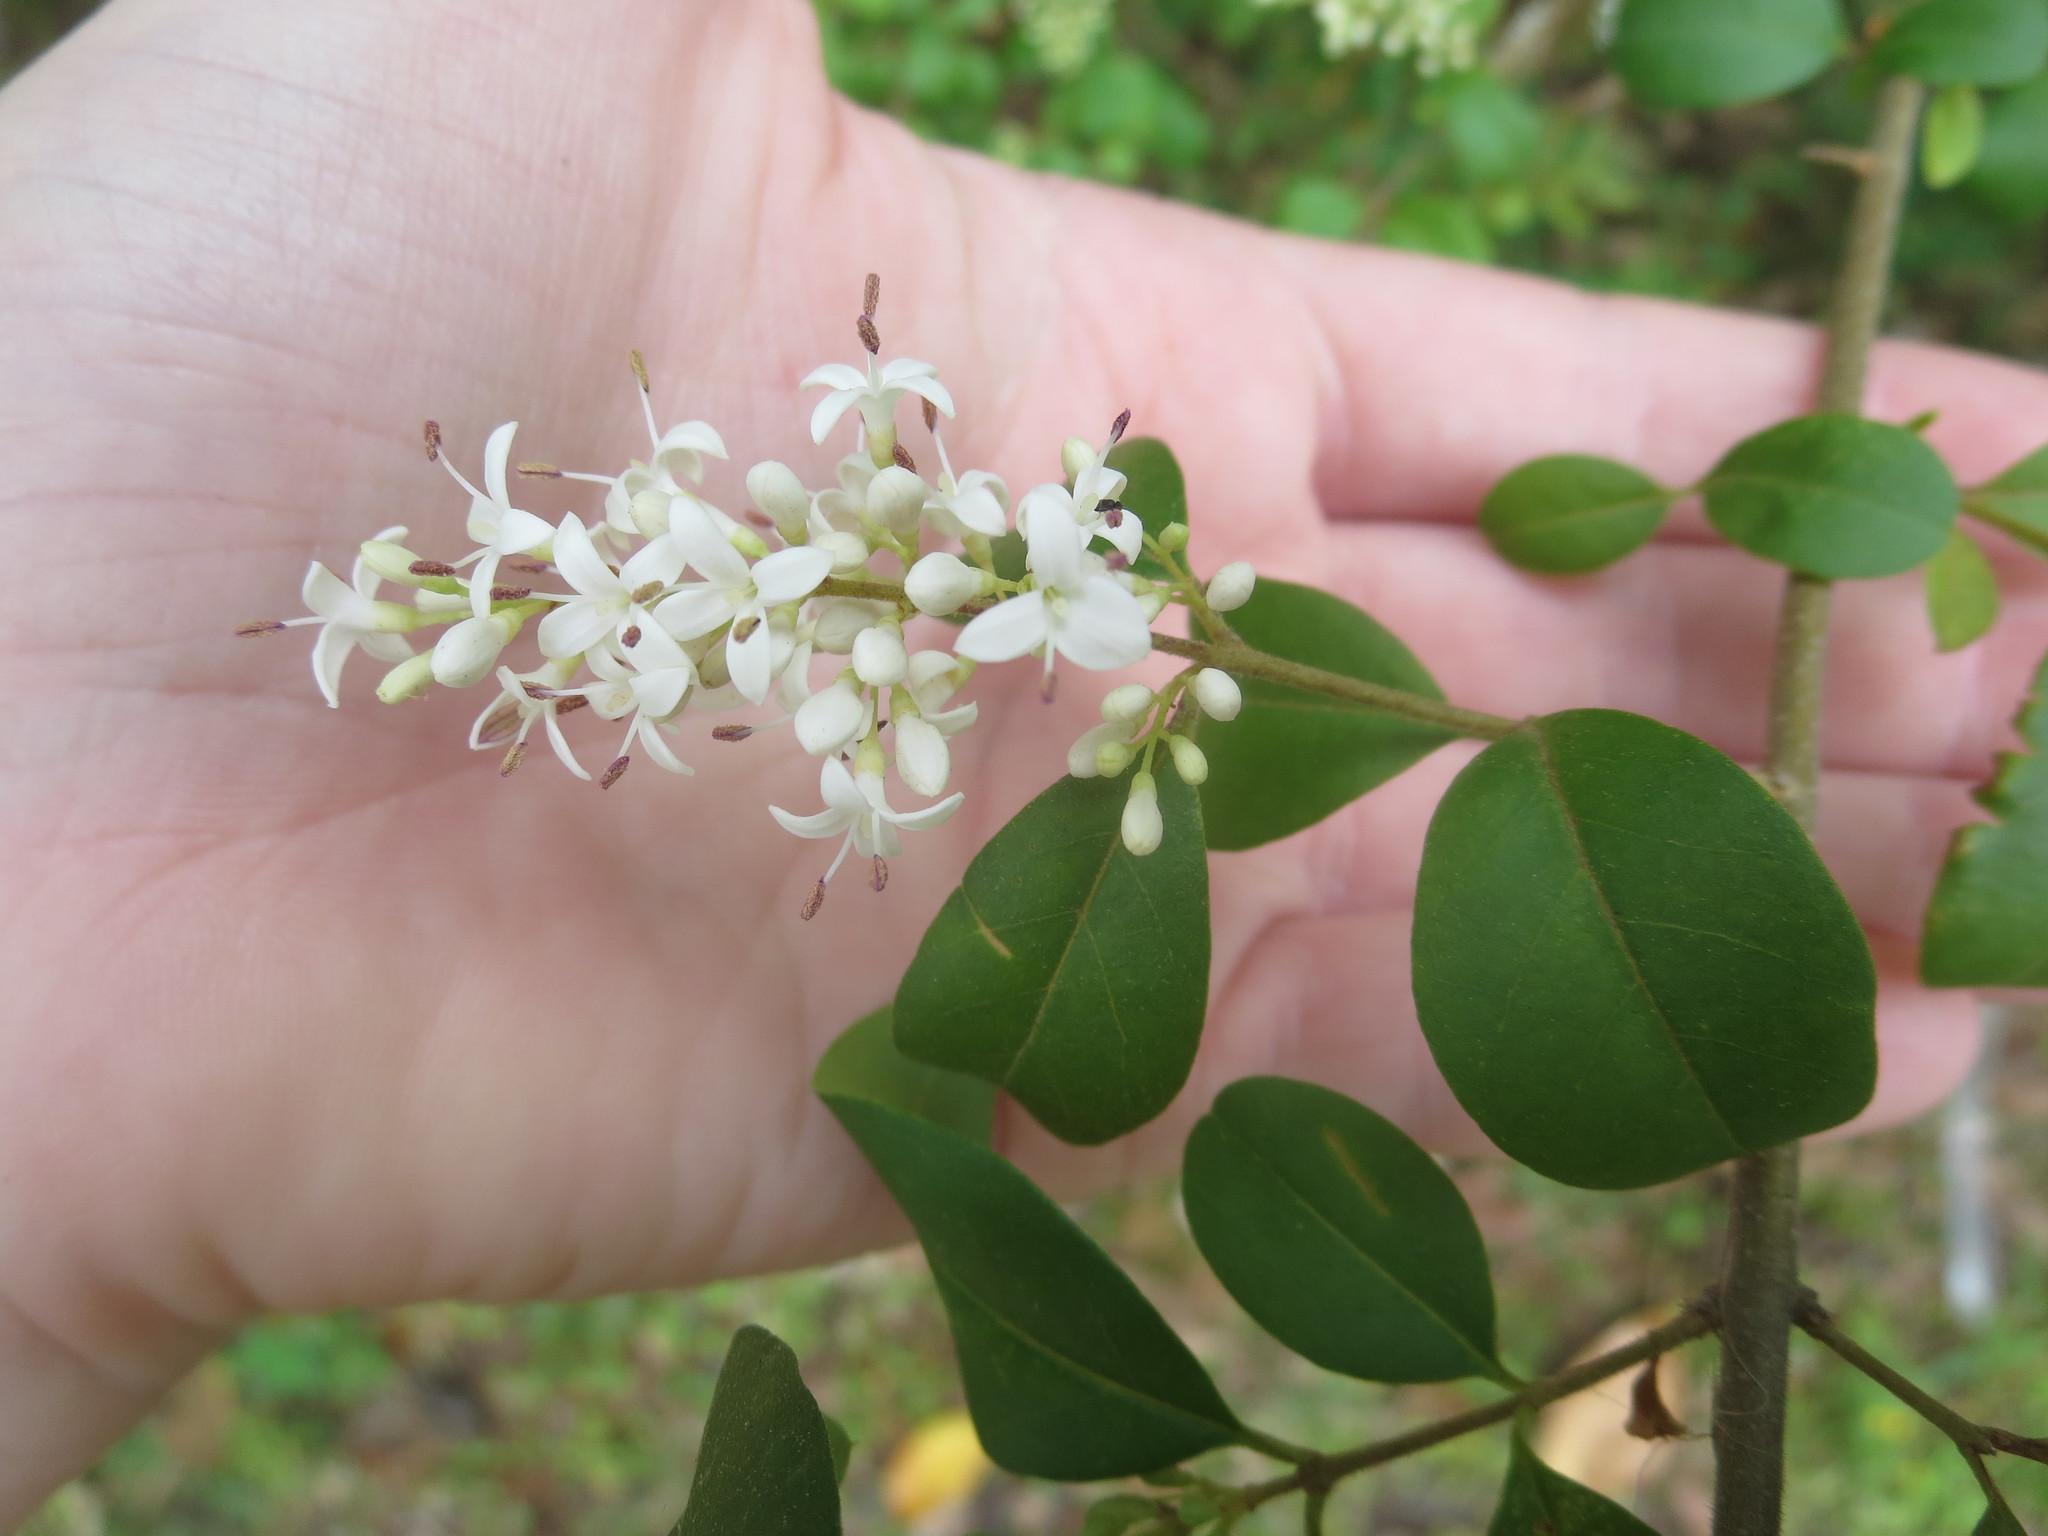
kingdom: Plantae
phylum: Tracheophyta
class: Magnoliopsida
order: Lamiales
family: Oleaceae
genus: Ligustrum
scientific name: Ligustrum sinense
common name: Chinese privet
